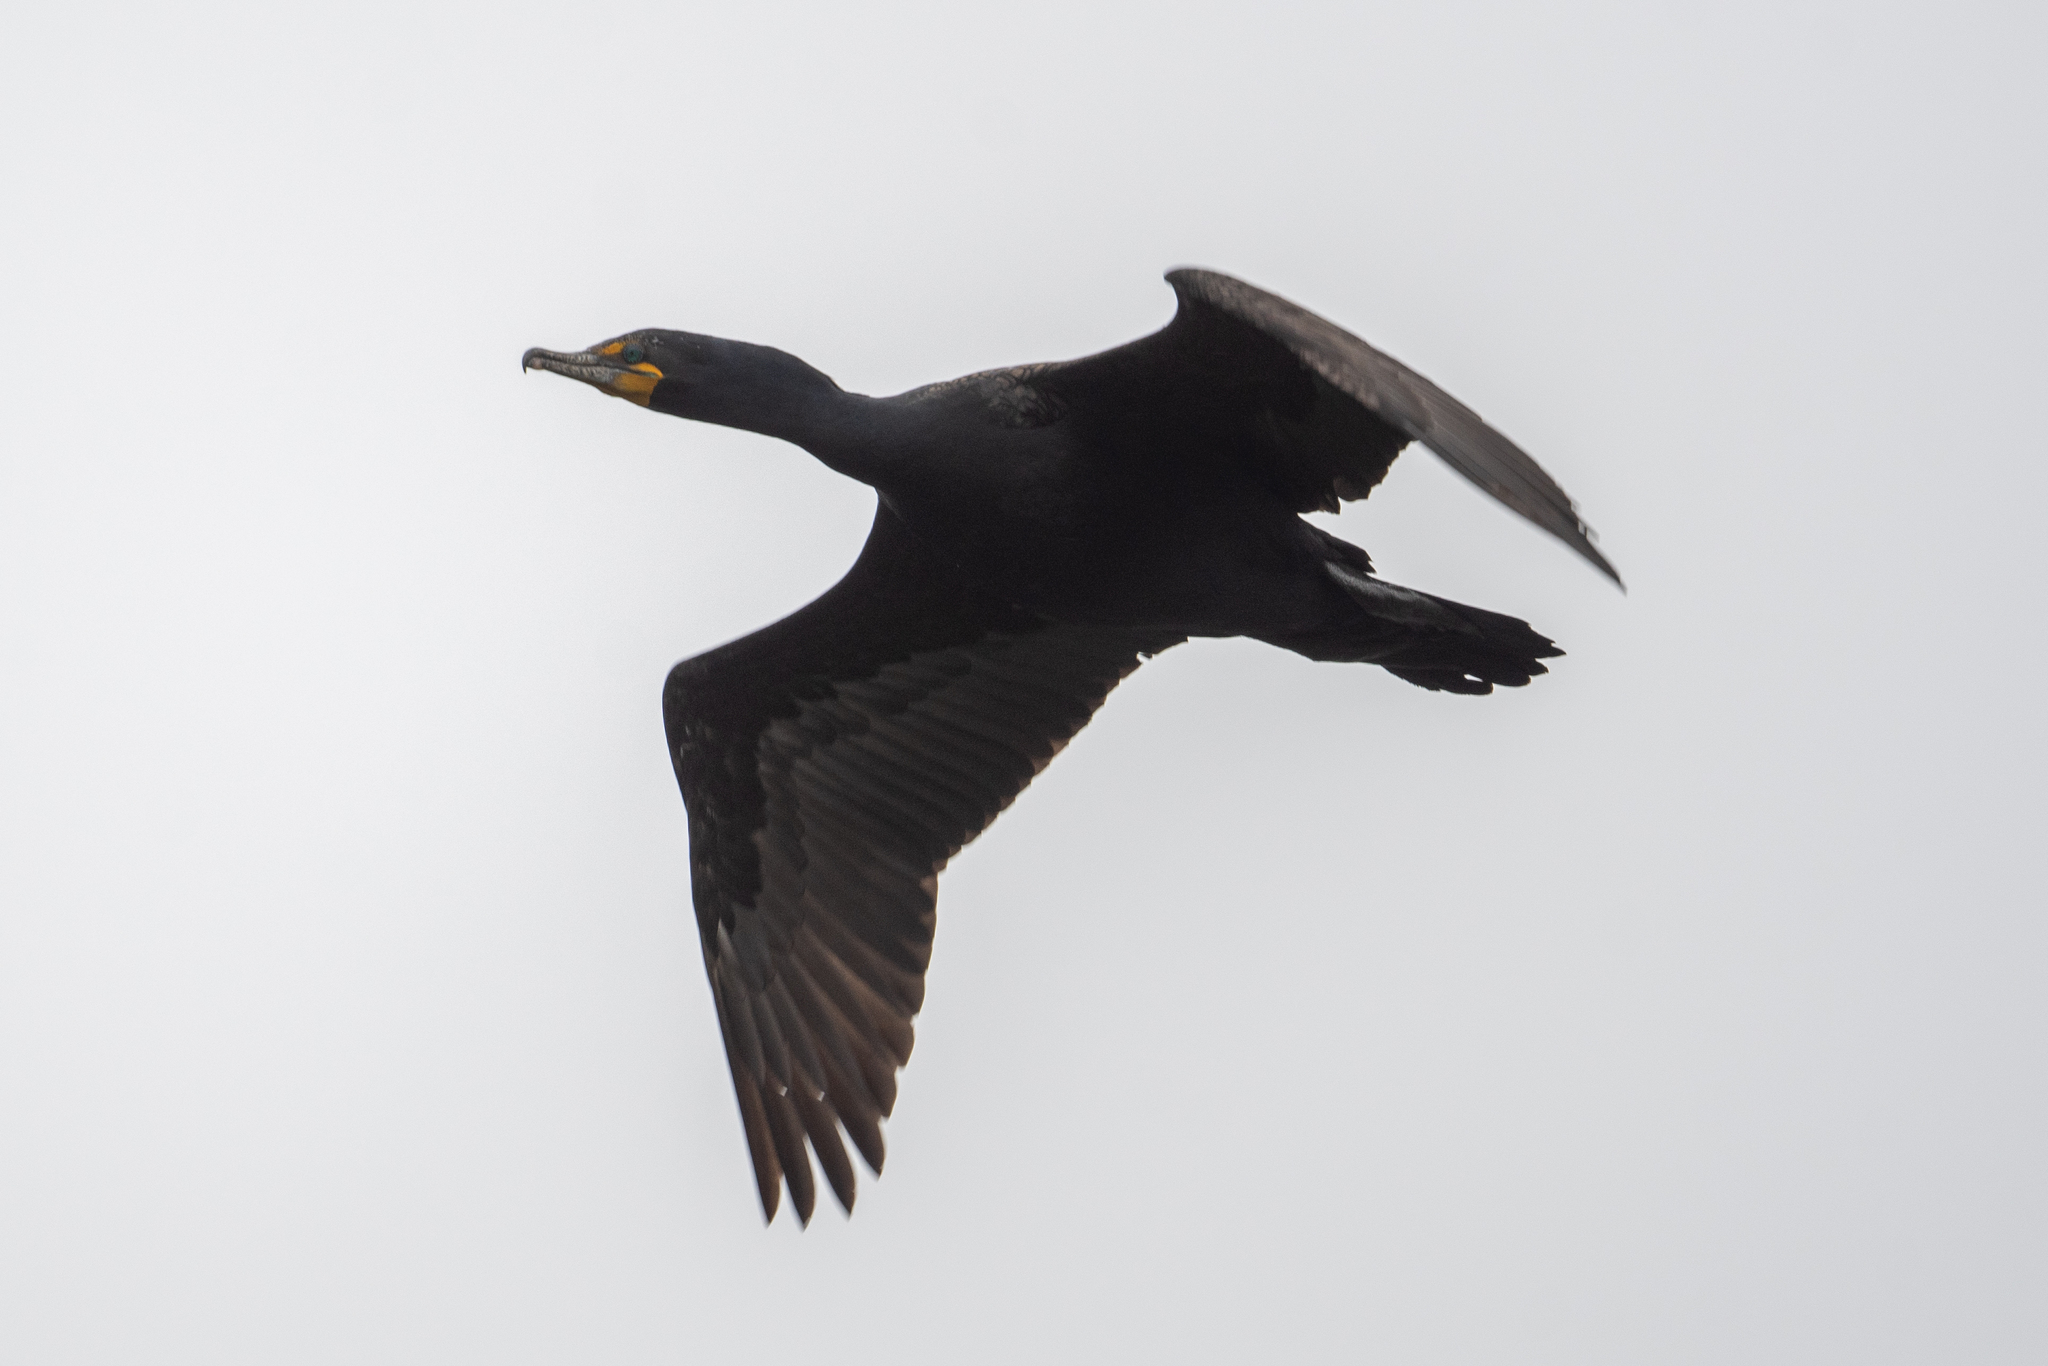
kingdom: Animalia
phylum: Chordata
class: Aves
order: Suliformes
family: Phalacrocoracidae
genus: Phalacrocorax
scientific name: Phalacrocorax auritus
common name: Double-crested cormorant
